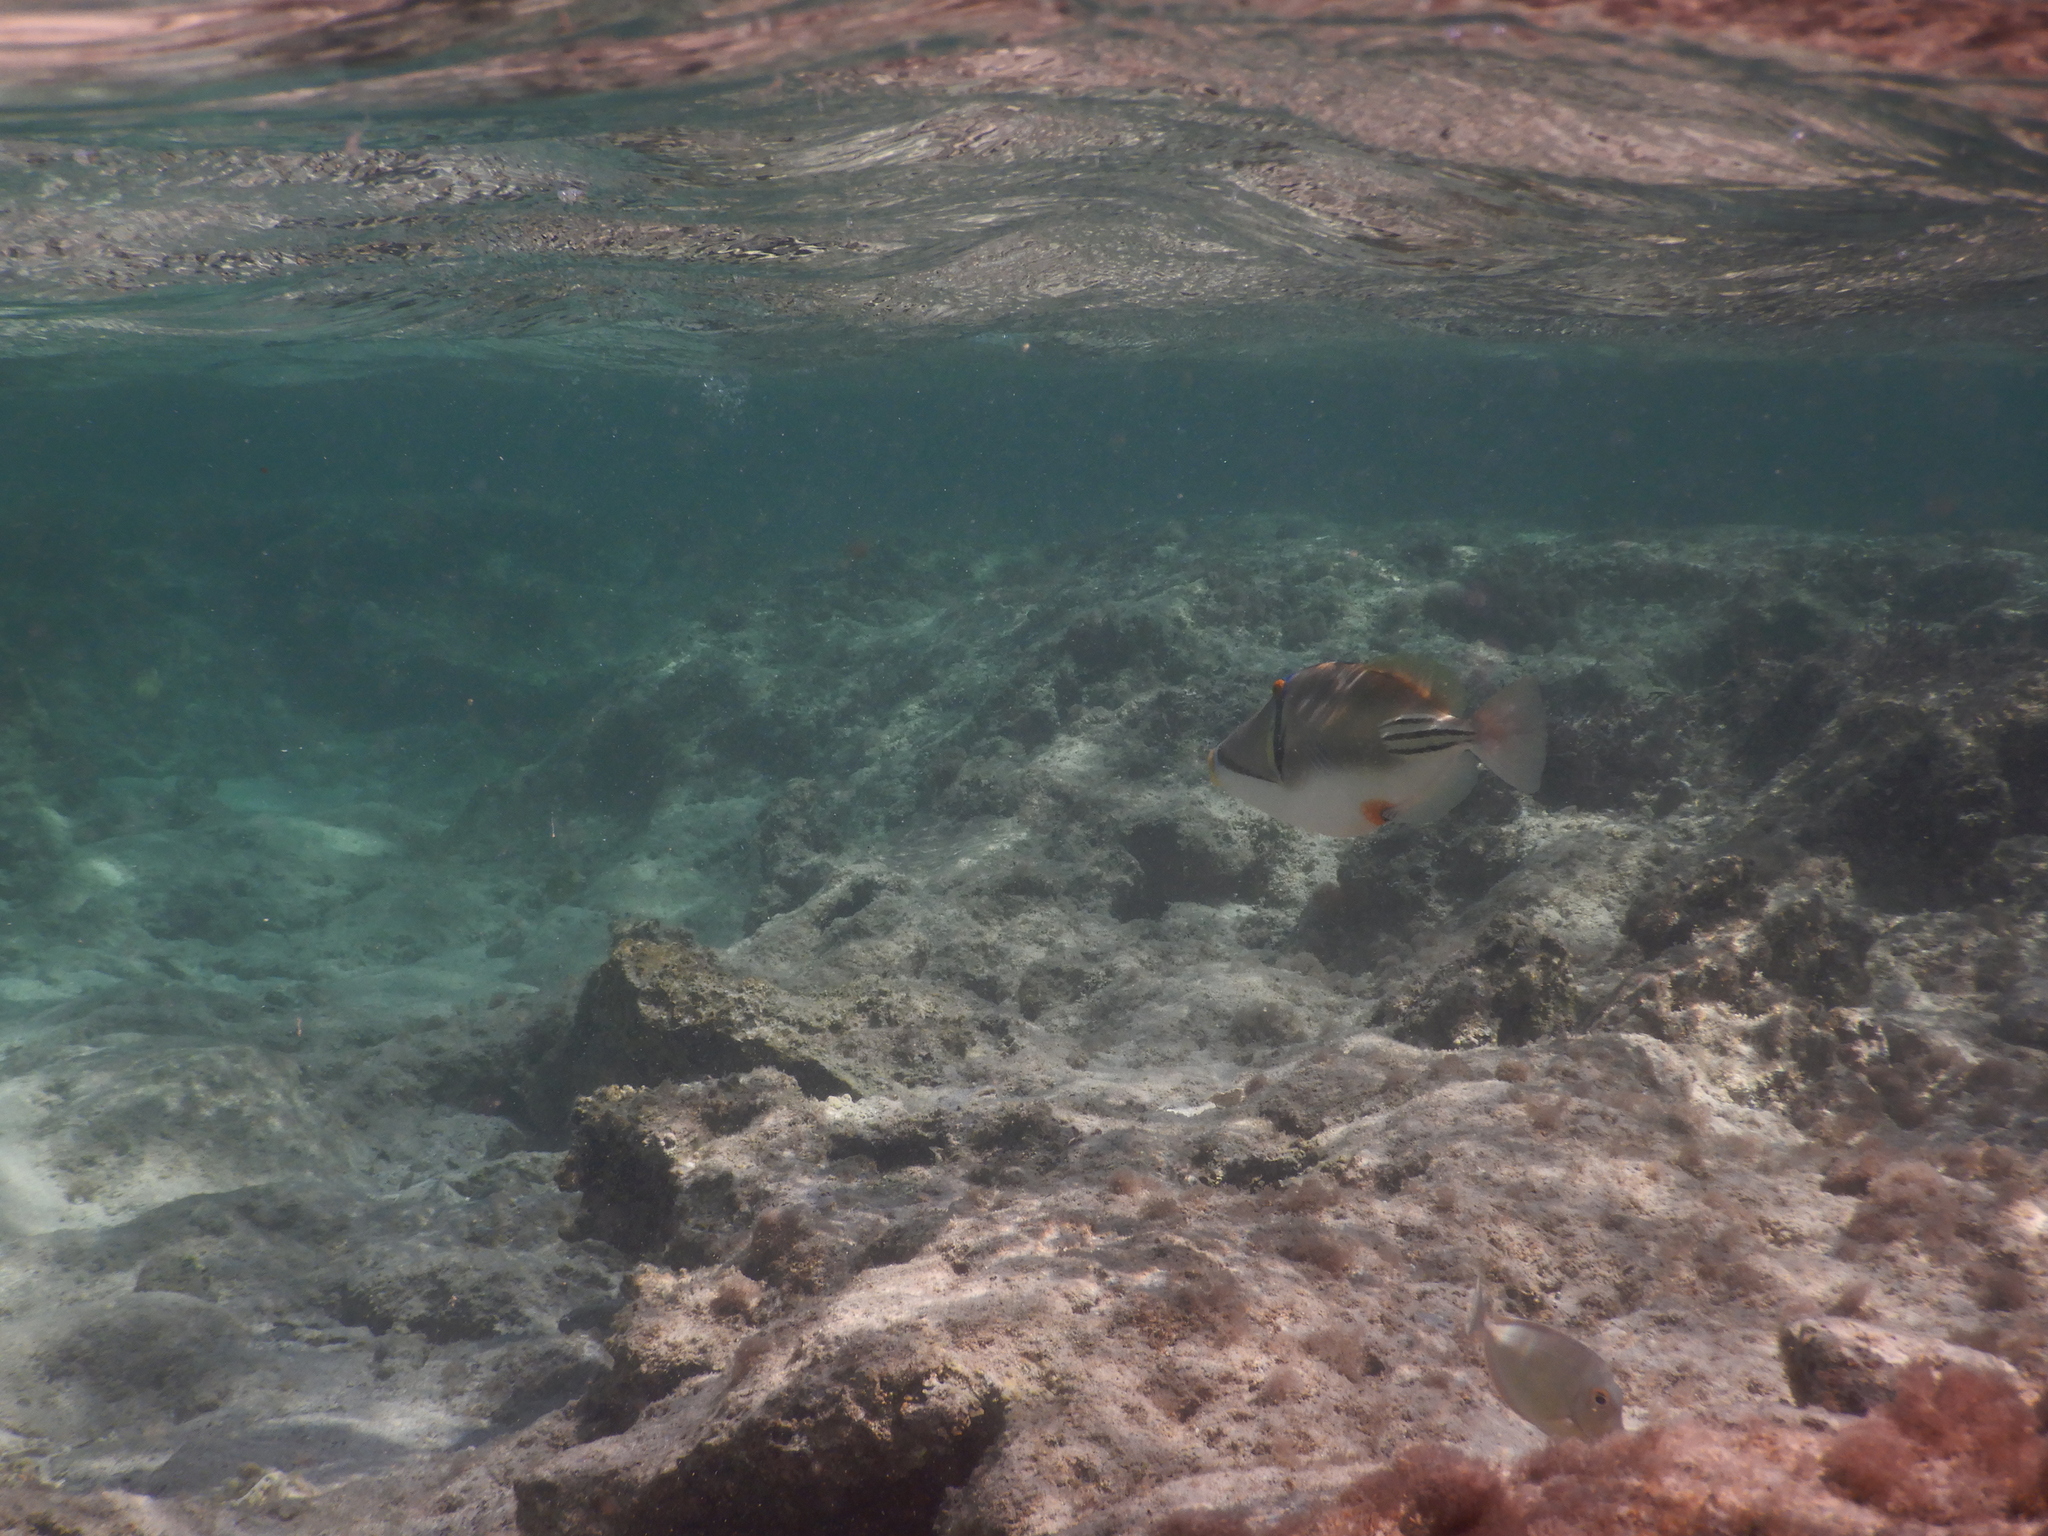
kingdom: Animalia
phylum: Chordata
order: Tetraodontiformes
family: Balistidae
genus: Rhinecanthus
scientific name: Rhinecanthus assasi
